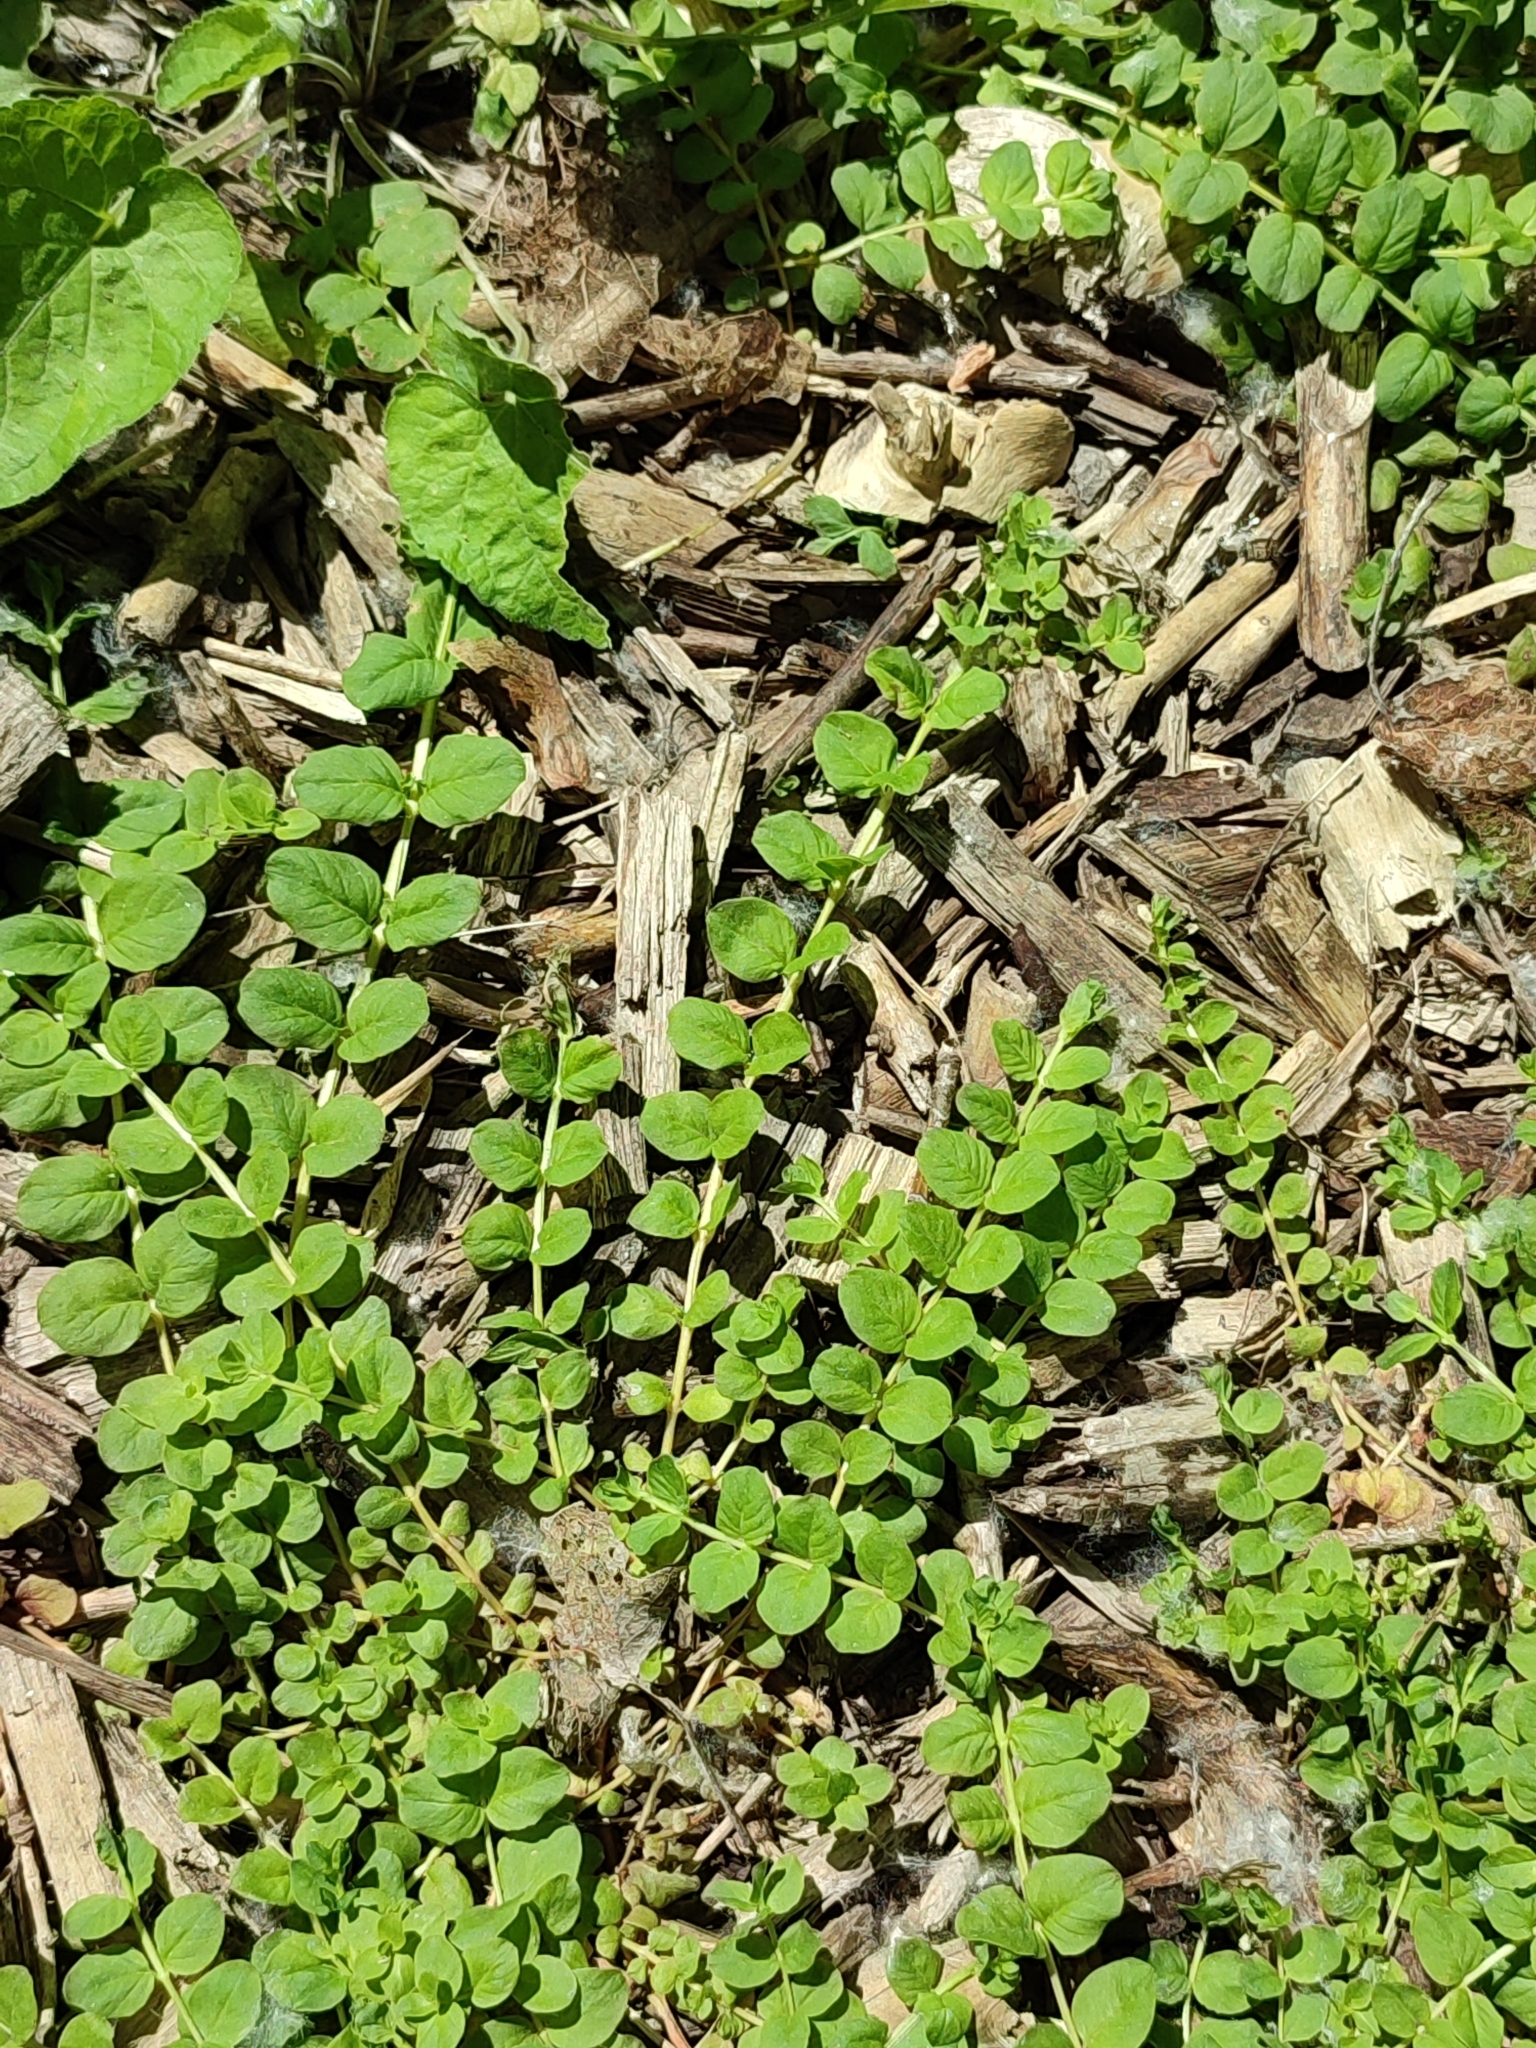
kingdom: Plantae
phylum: Tracheophyta
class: Magnoliopsida
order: Ericales
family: Primulaceae
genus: Lysimachia
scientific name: Lysimachia nummularia
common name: Moneywort
